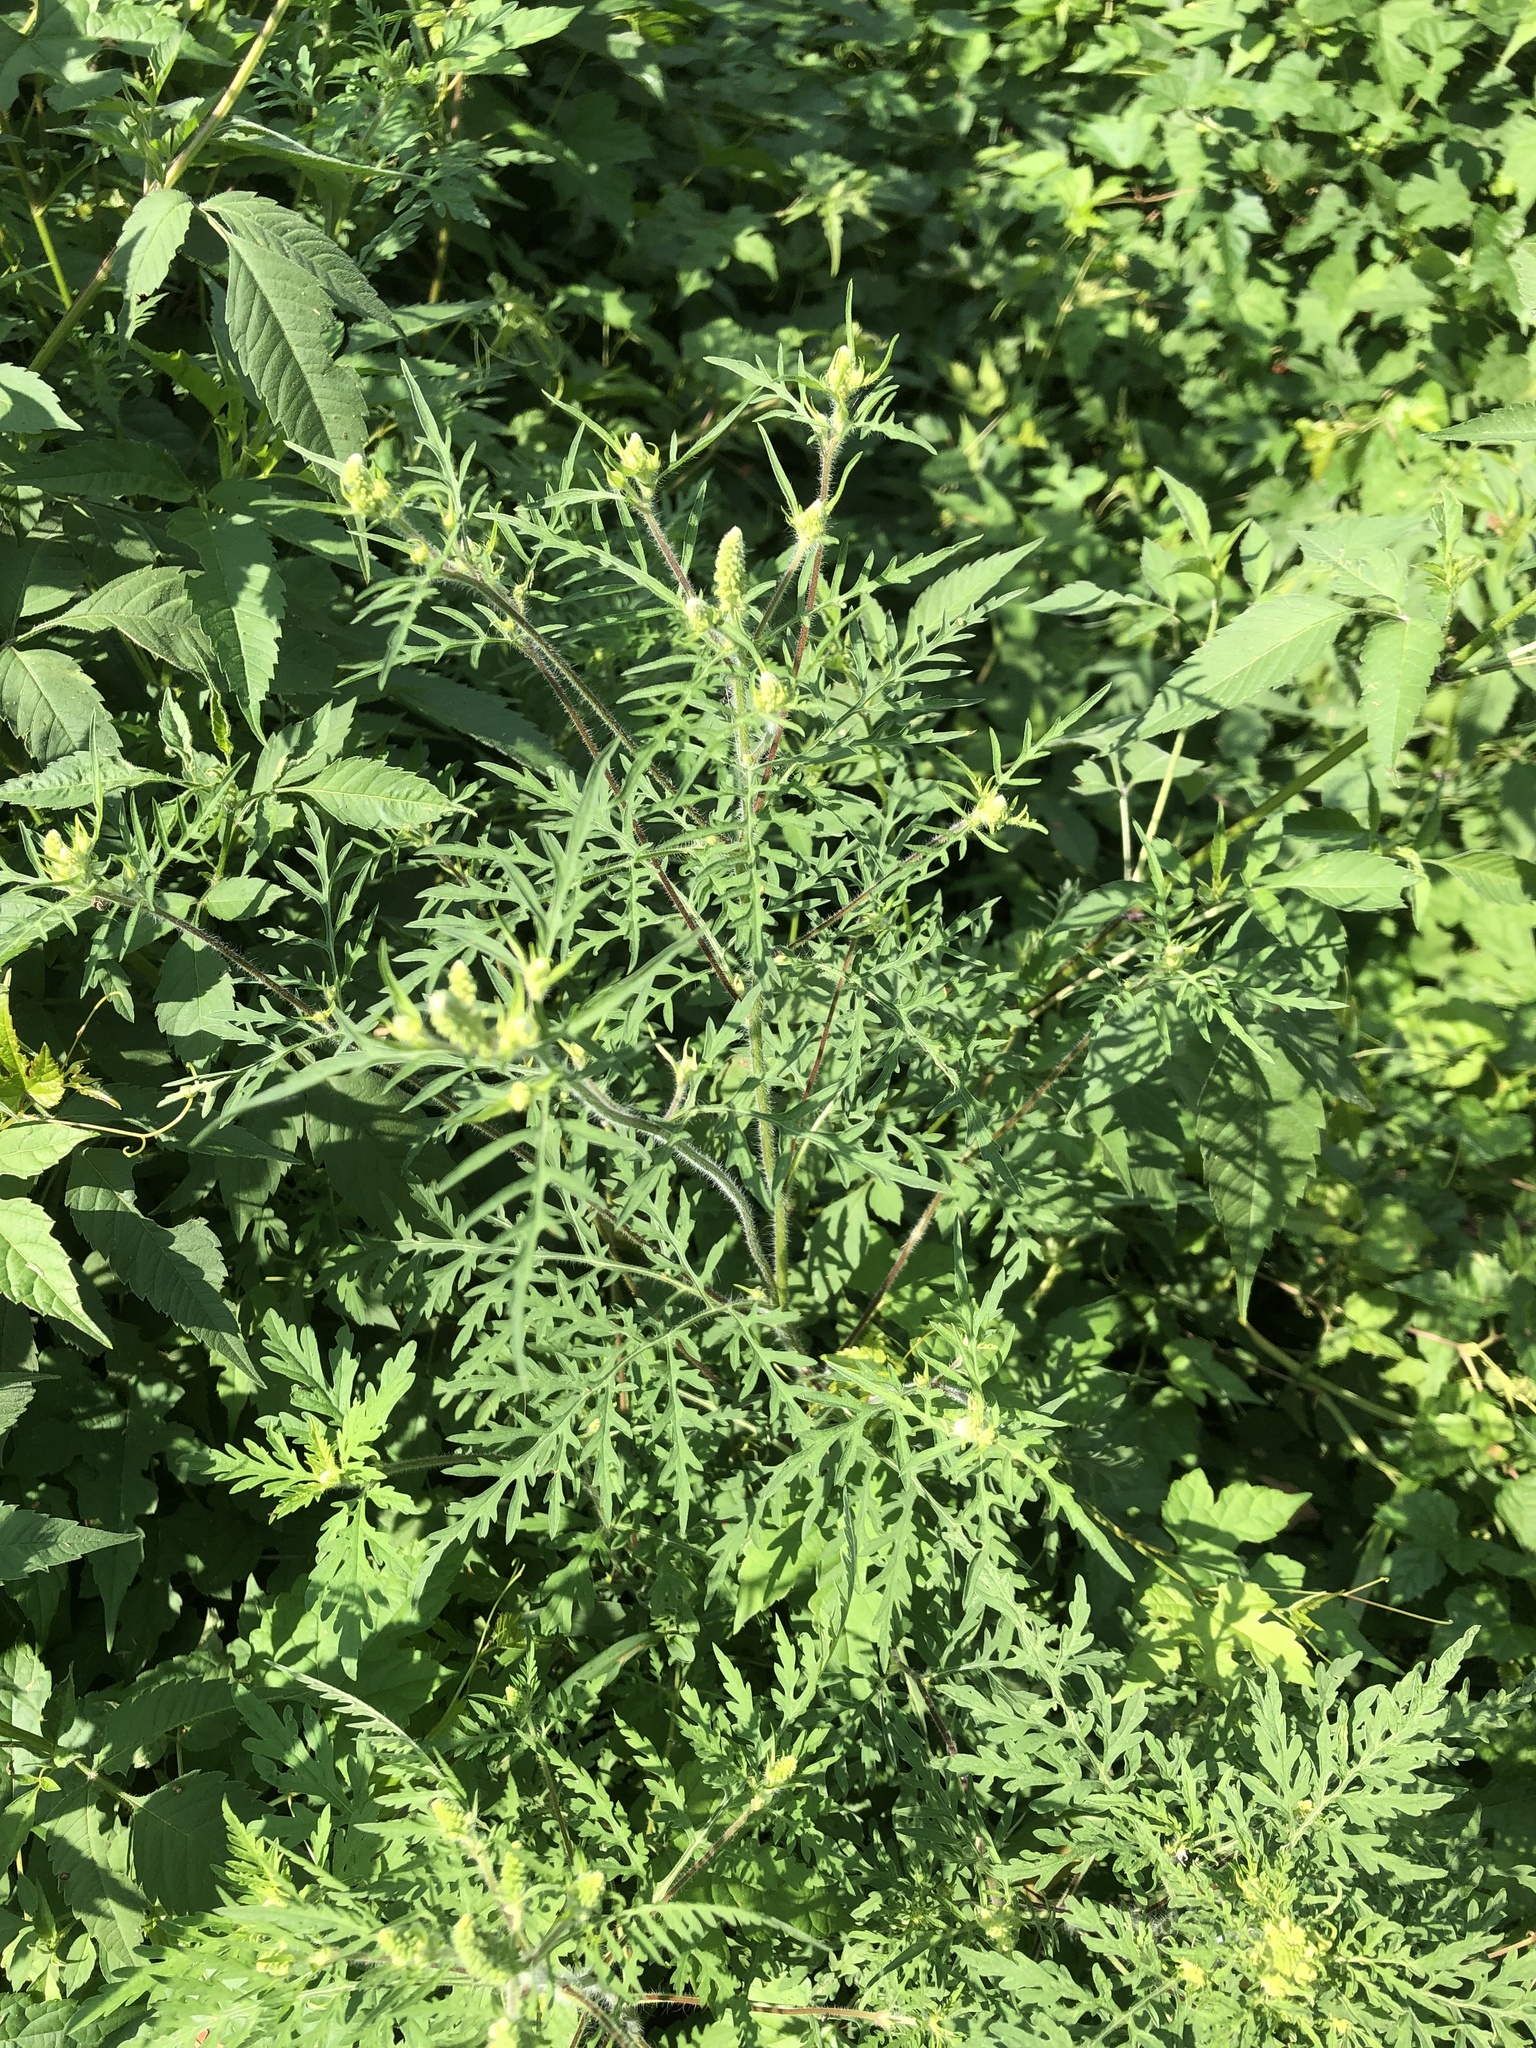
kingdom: Plantae
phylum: Tracheophyta
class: Magnoliopsida
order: Asterales
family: Asteraceae
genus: Ambrosia
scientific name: Ambrosia artemisiifolia
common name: Annual ragweed
